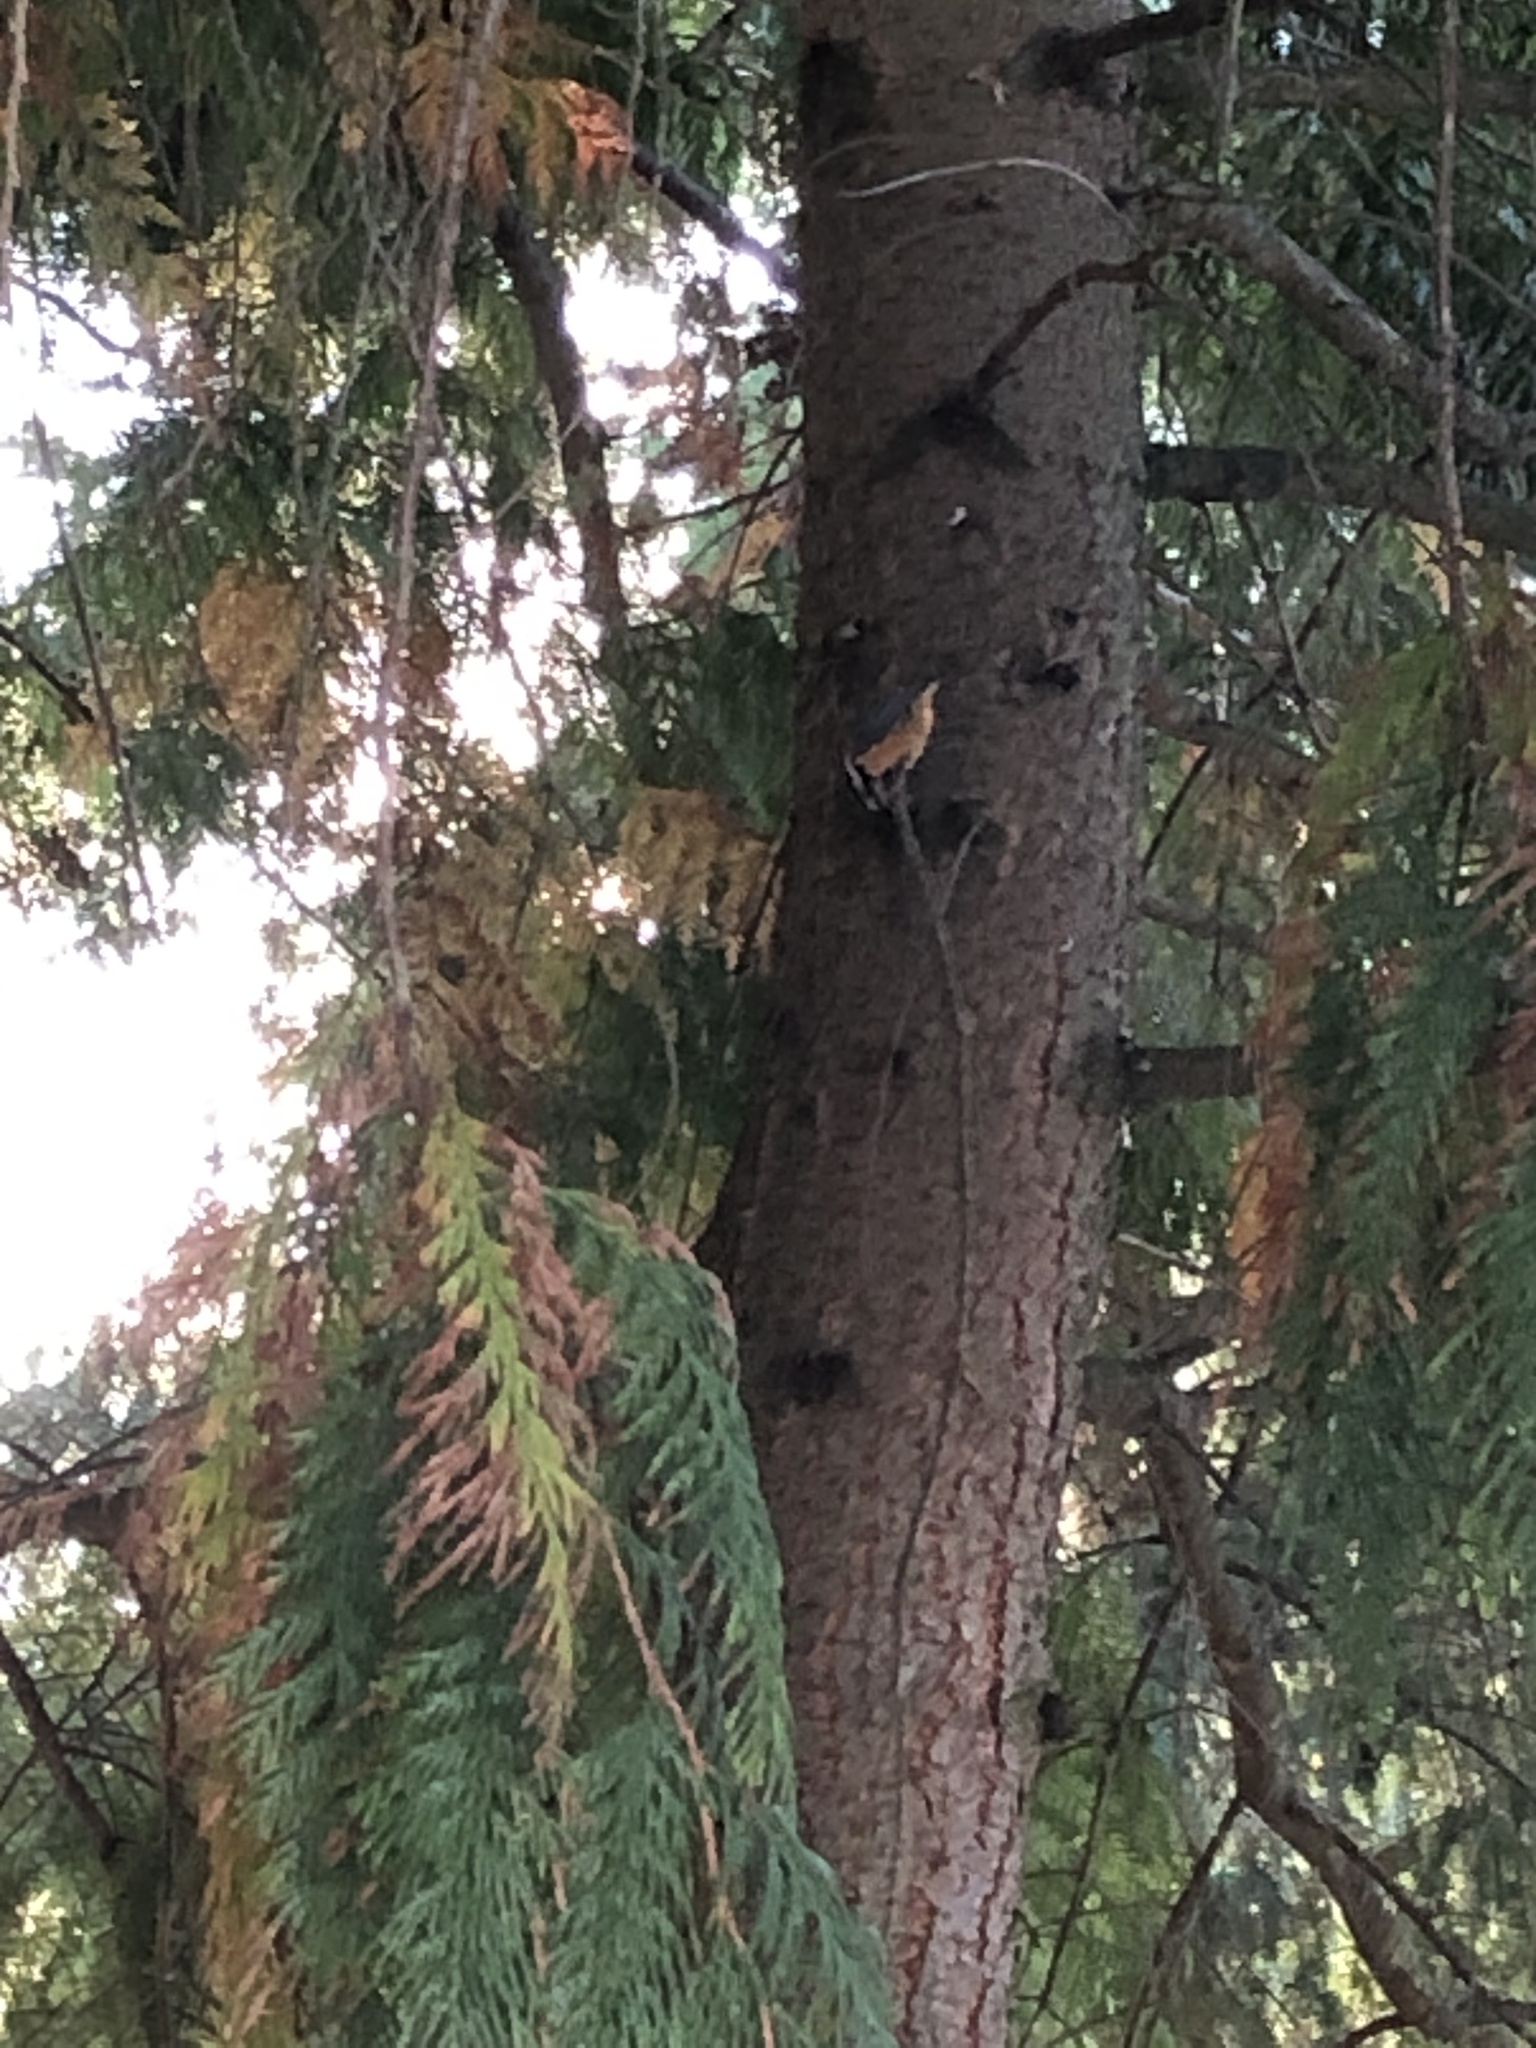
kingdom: Animalia
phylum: Chordata
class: Aves
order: Passeriformes
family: Sittidae
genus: Sitta
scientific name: Sitta canadensis
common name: Red-breasted nuthatch
